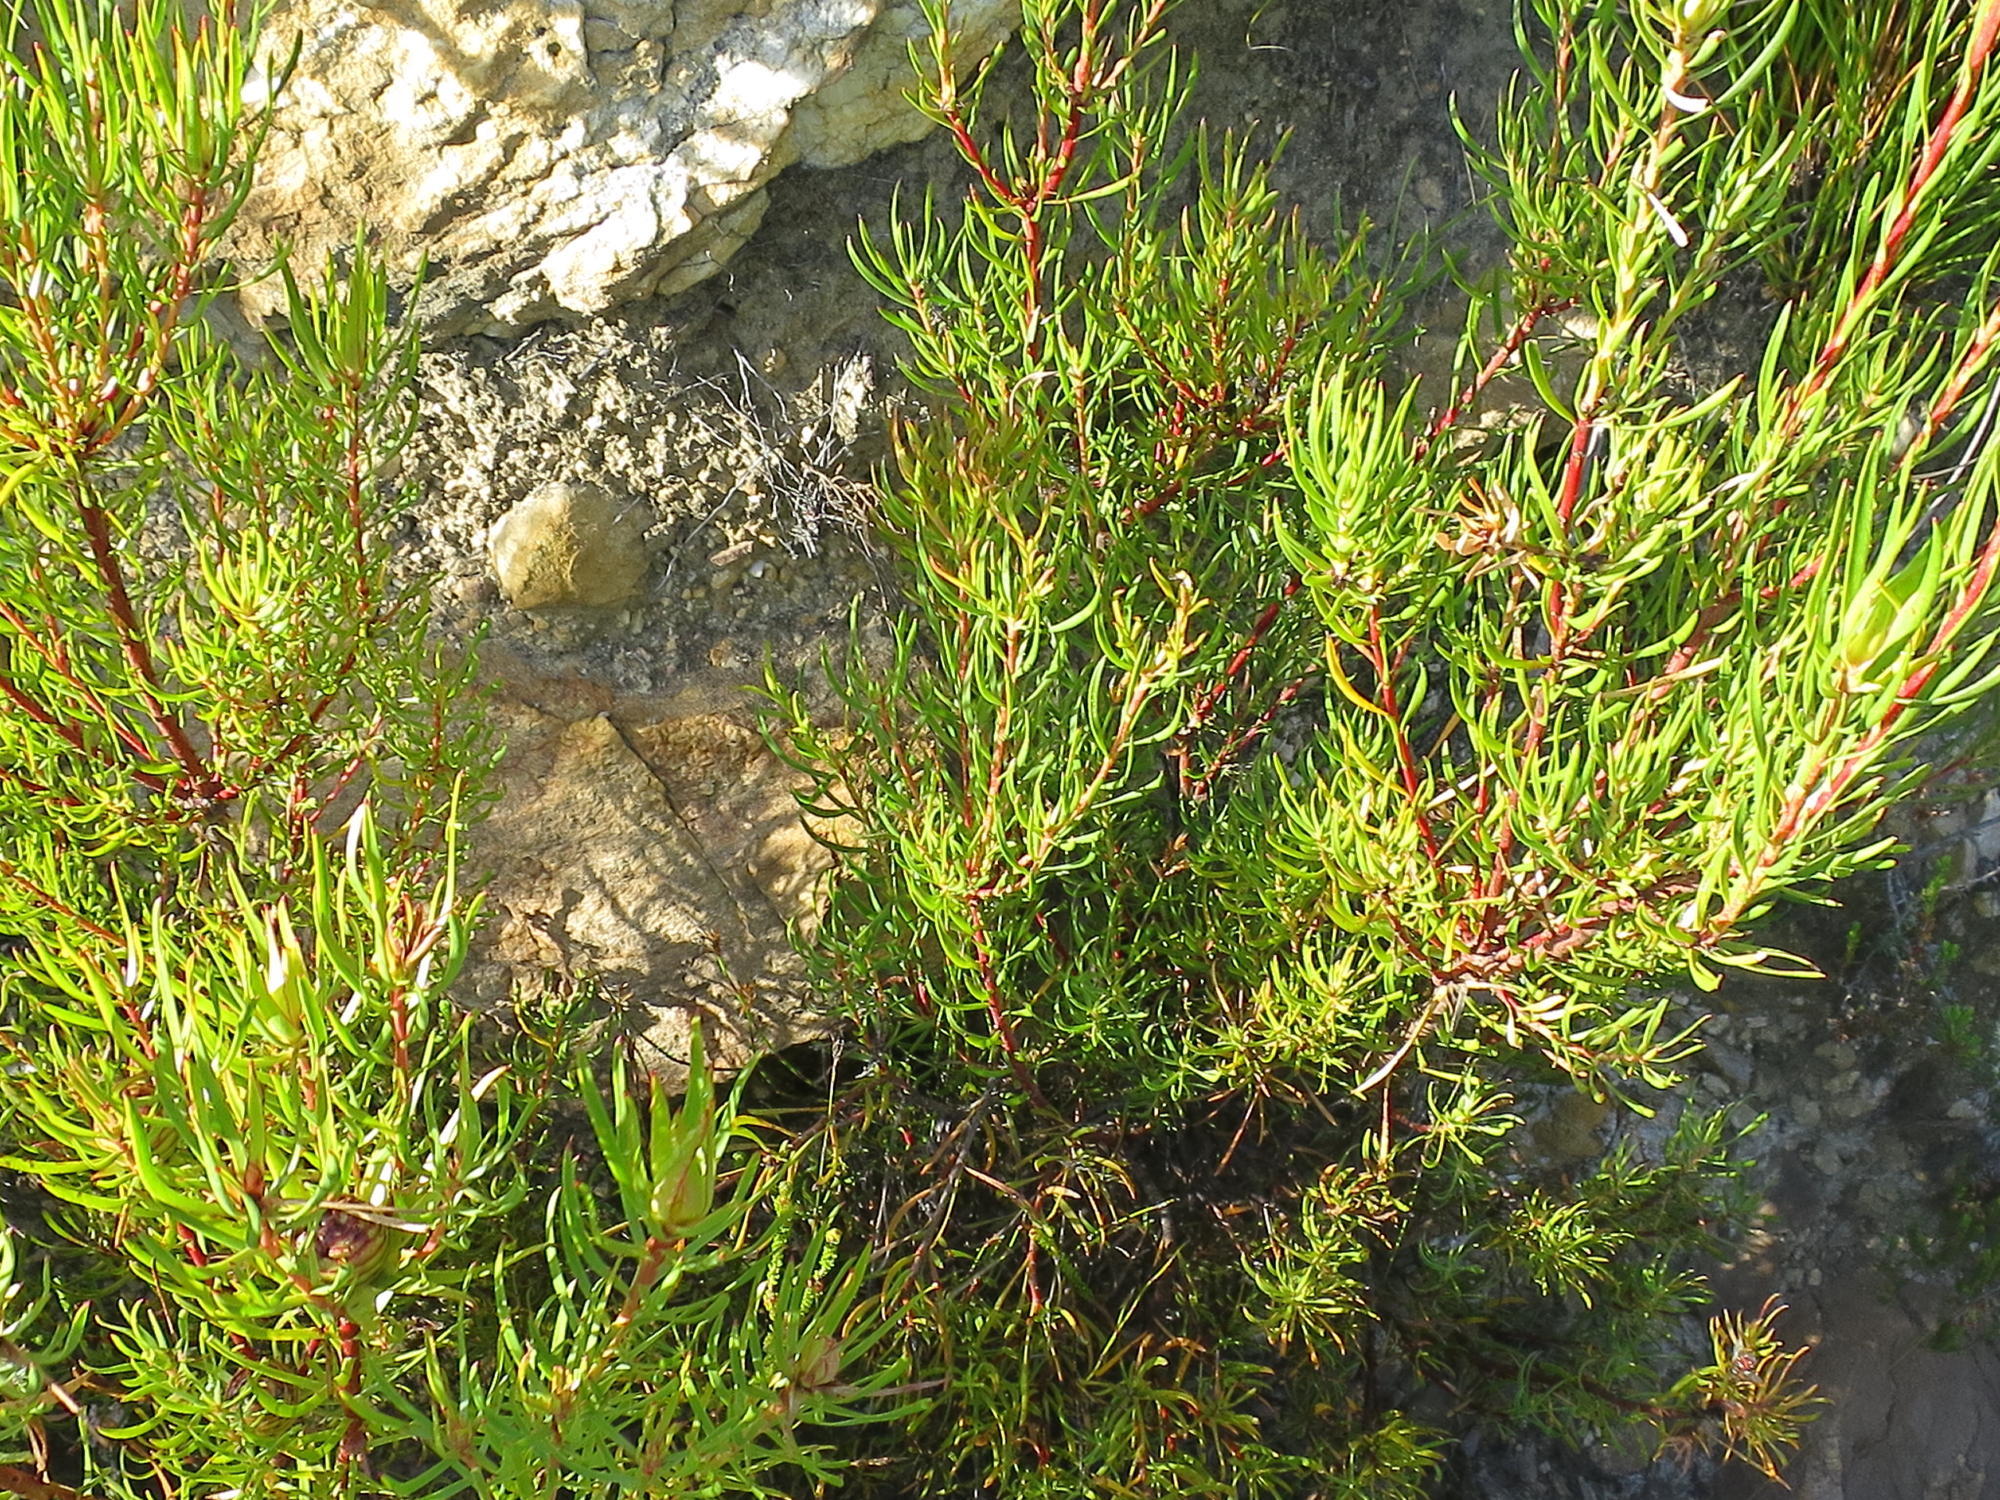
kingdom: Plantae
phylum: Tracheophyta
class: Magnoliopsida
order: Proteales
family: Proteaceae
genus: Leucadendron
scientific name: Leucadendron spissifolium
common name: Spear-leaf conebush
